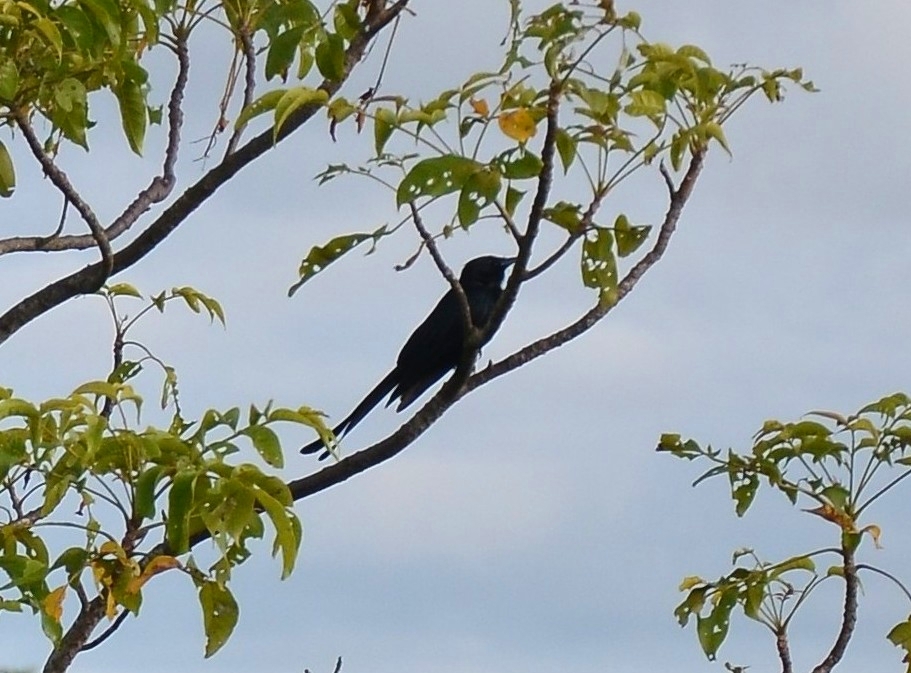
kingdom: Animalia
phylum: Chordata
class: Aves
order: Passeriformes
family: Dicruridae
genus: Dicrurus
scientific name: Dicrurus macrocercus
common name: Black drongo
